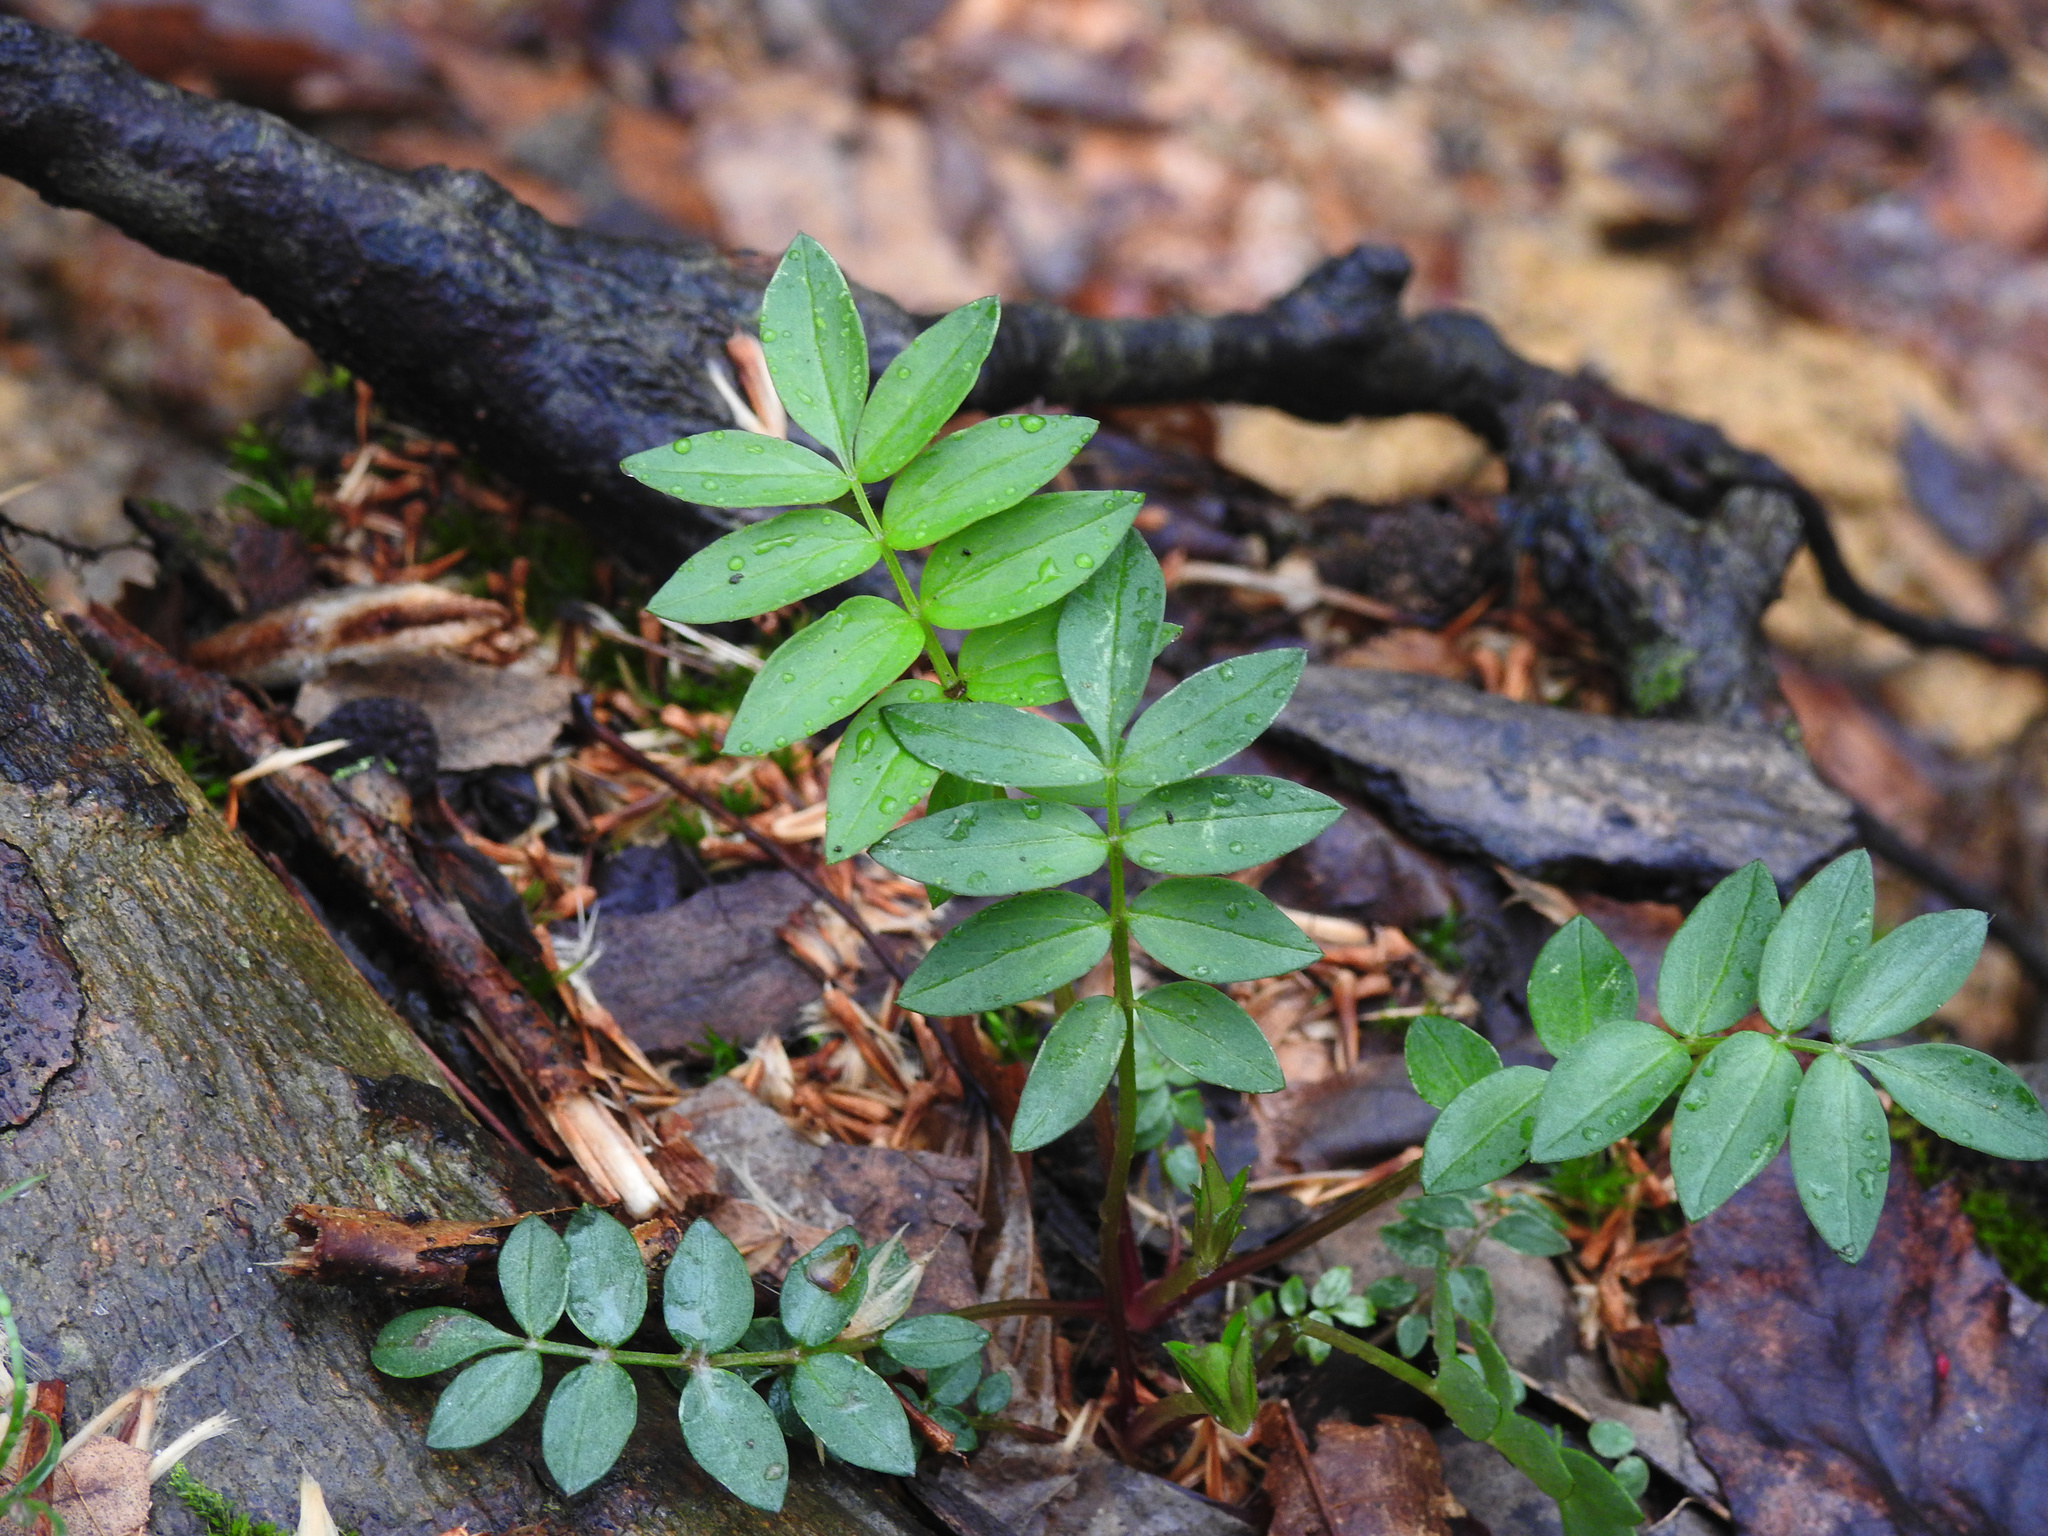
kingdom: Plantae
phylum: Tracheophyta
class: Magnoliopsida
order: Ericales
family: Polemoniaceae
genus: Polemonium
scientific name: Polemonium reptans
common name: Creeping jacob's-ladder
